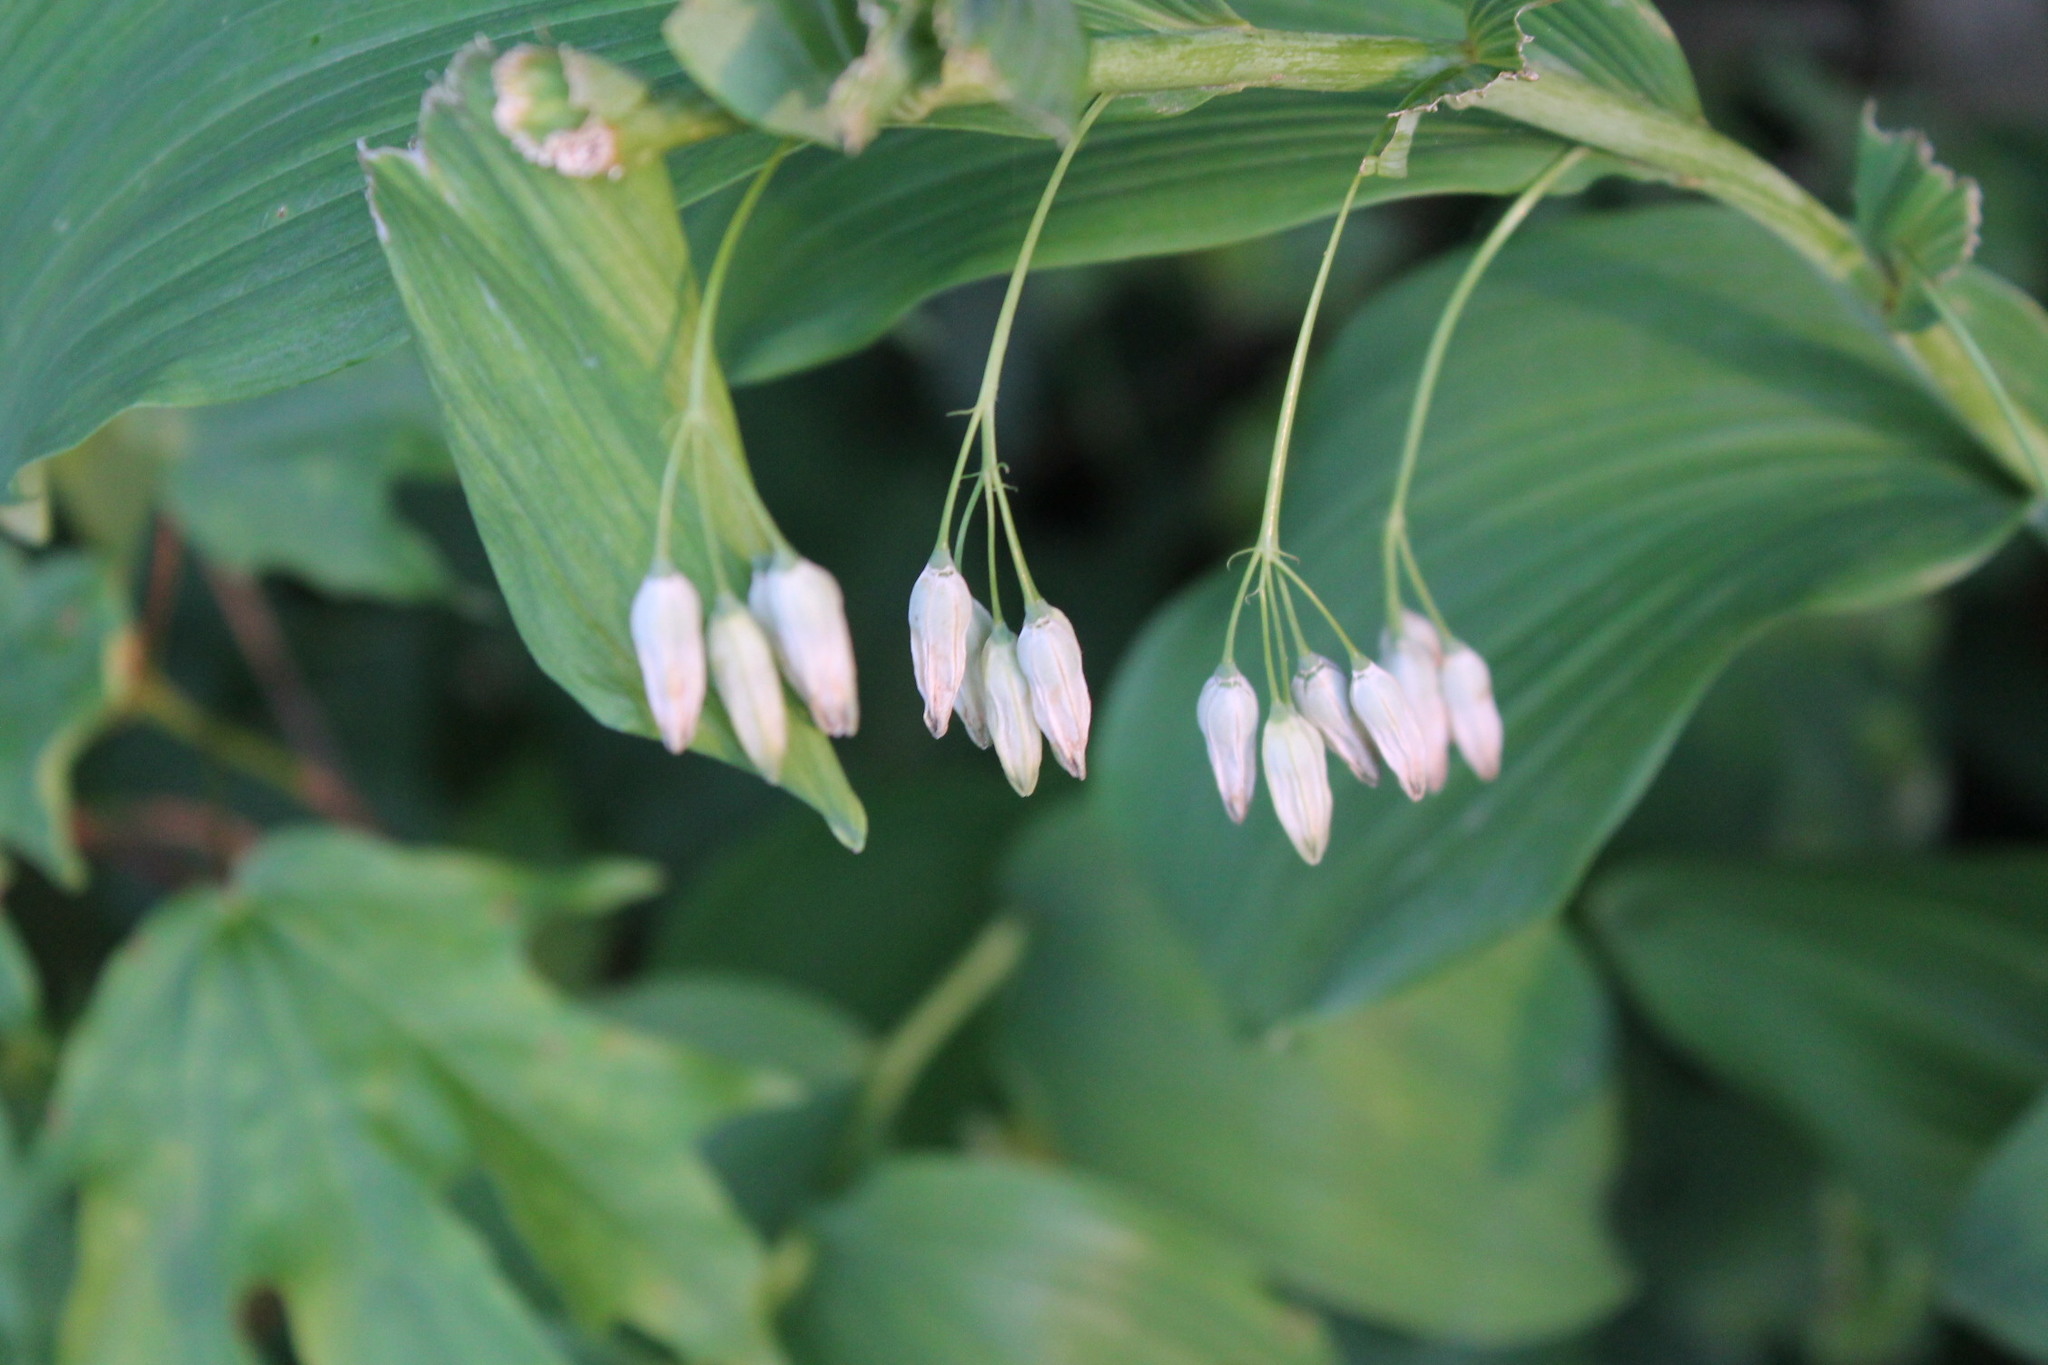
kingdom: Plantae
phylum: Tracheophyta
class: Liliopsida
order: Asparagales
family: Asparagaceae
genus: Polygonatum
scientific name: Polygonatum biflorum
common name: American solomon's-seal
